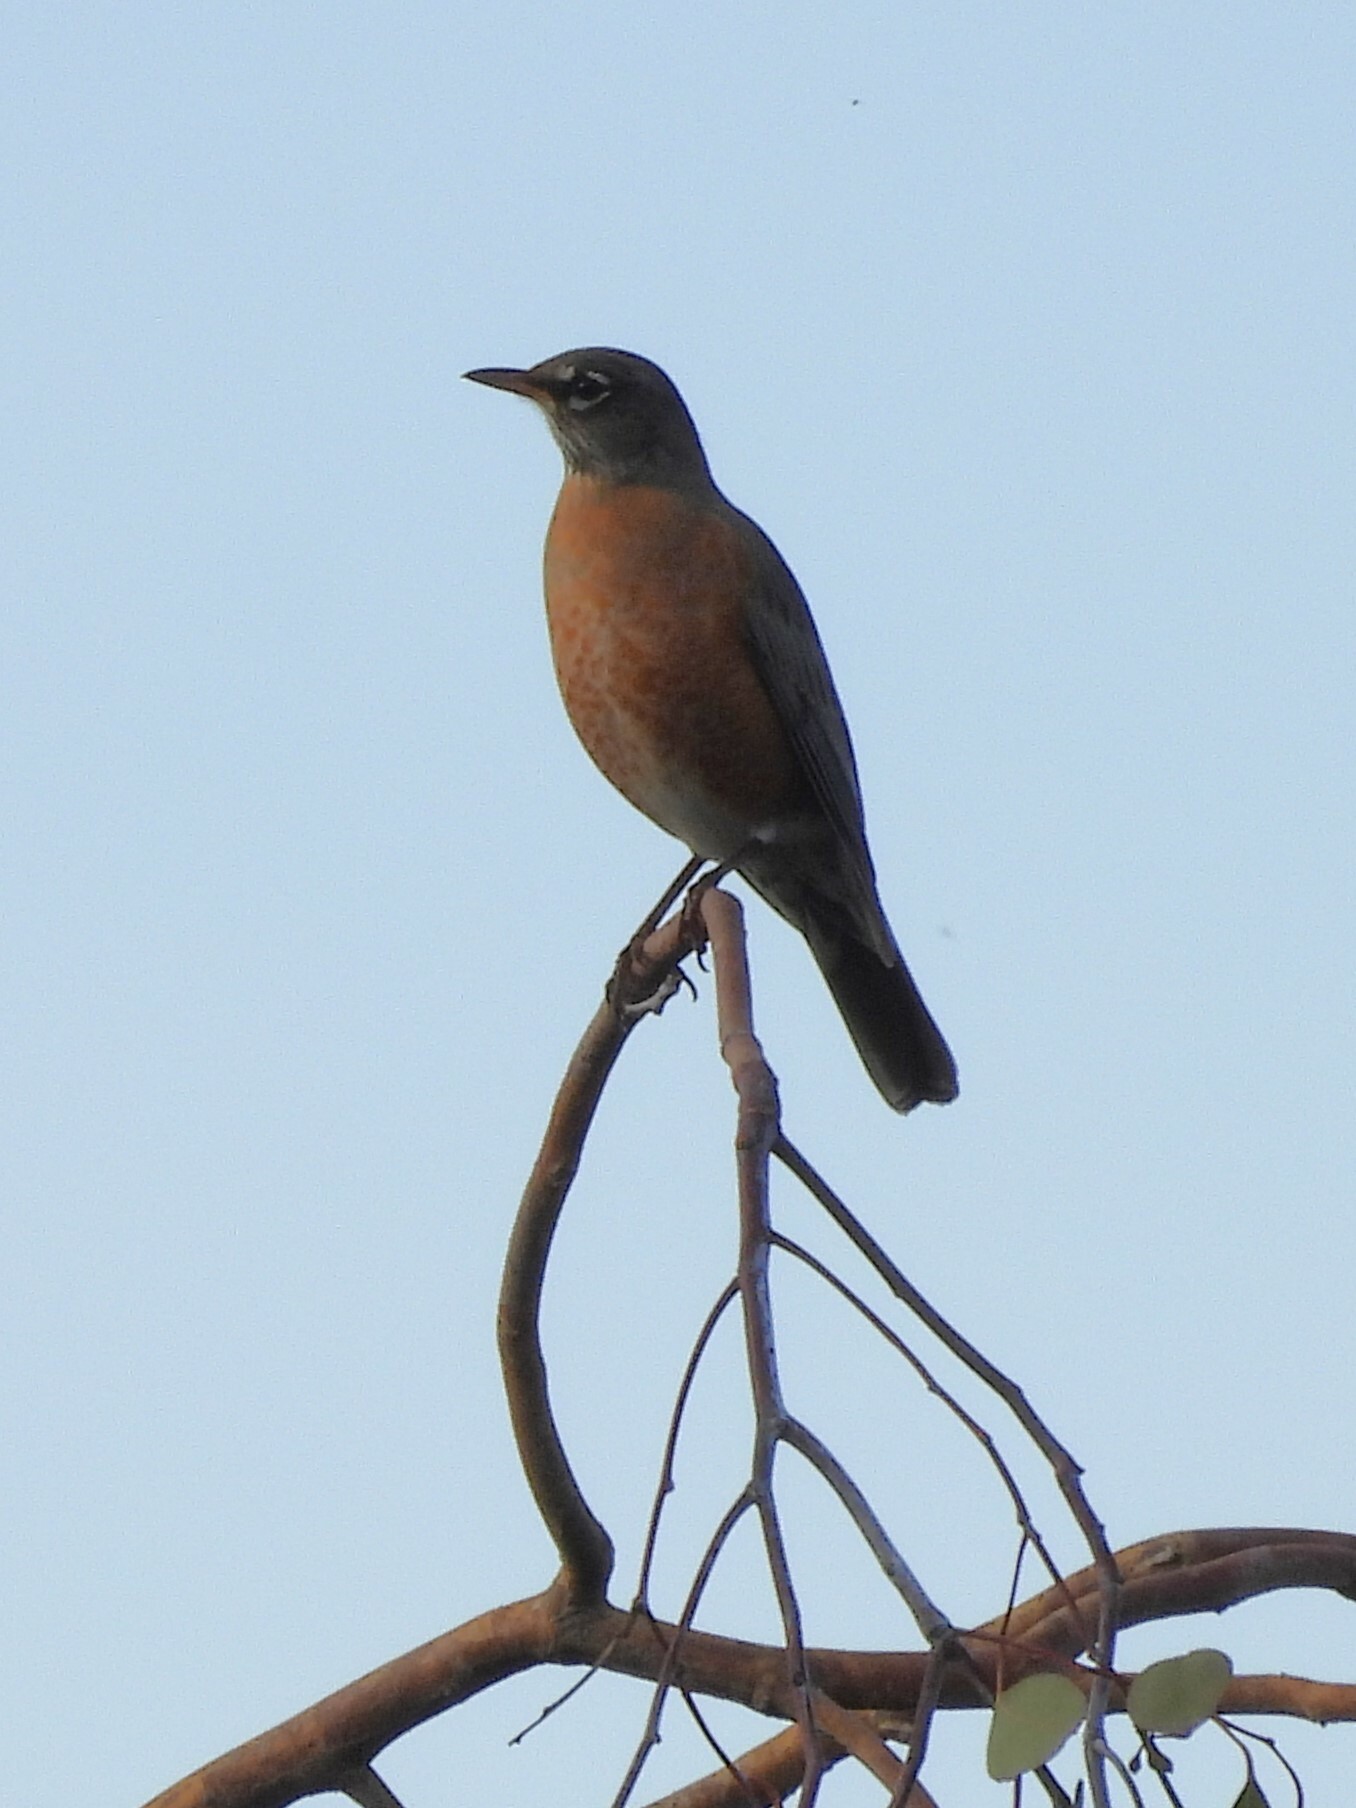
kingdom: Animalia
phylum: Chordata
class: Aves
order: Passeriformes
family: Turdidae
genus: Turdus
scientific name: Turdus migratorius
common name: American robin
